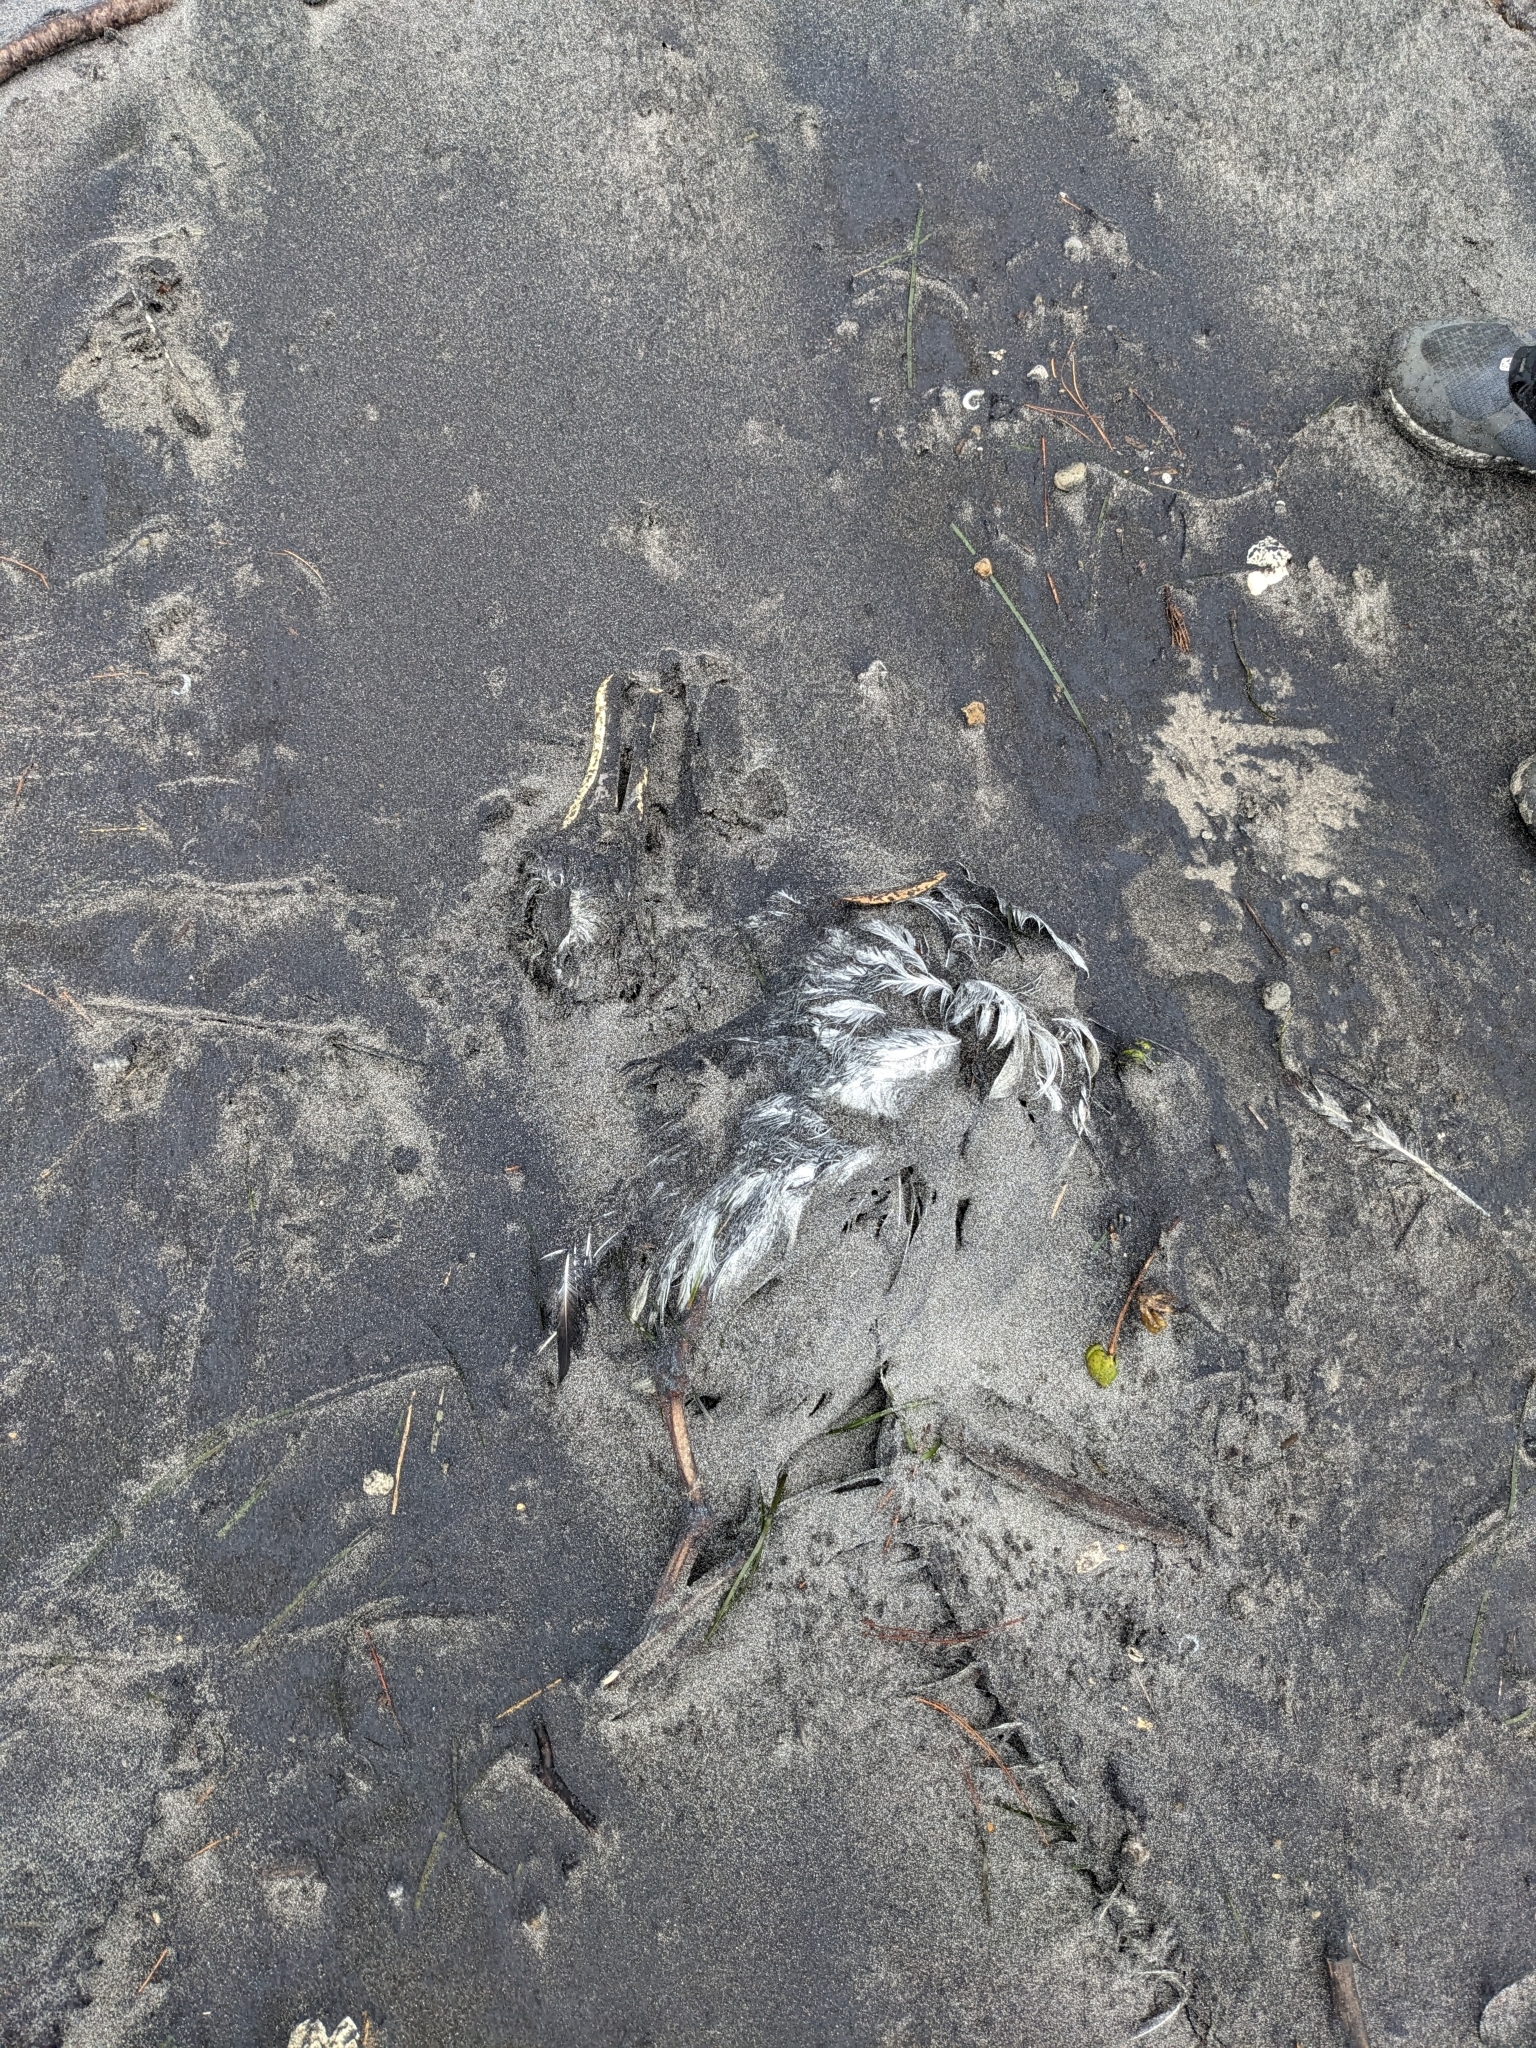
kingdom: Animalia
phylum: Chordata
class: Aves
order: Procellariiformes
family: Diomedeidae
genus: Thalassarche
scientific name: Thalassarche bulleri
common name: Buller's albatross
